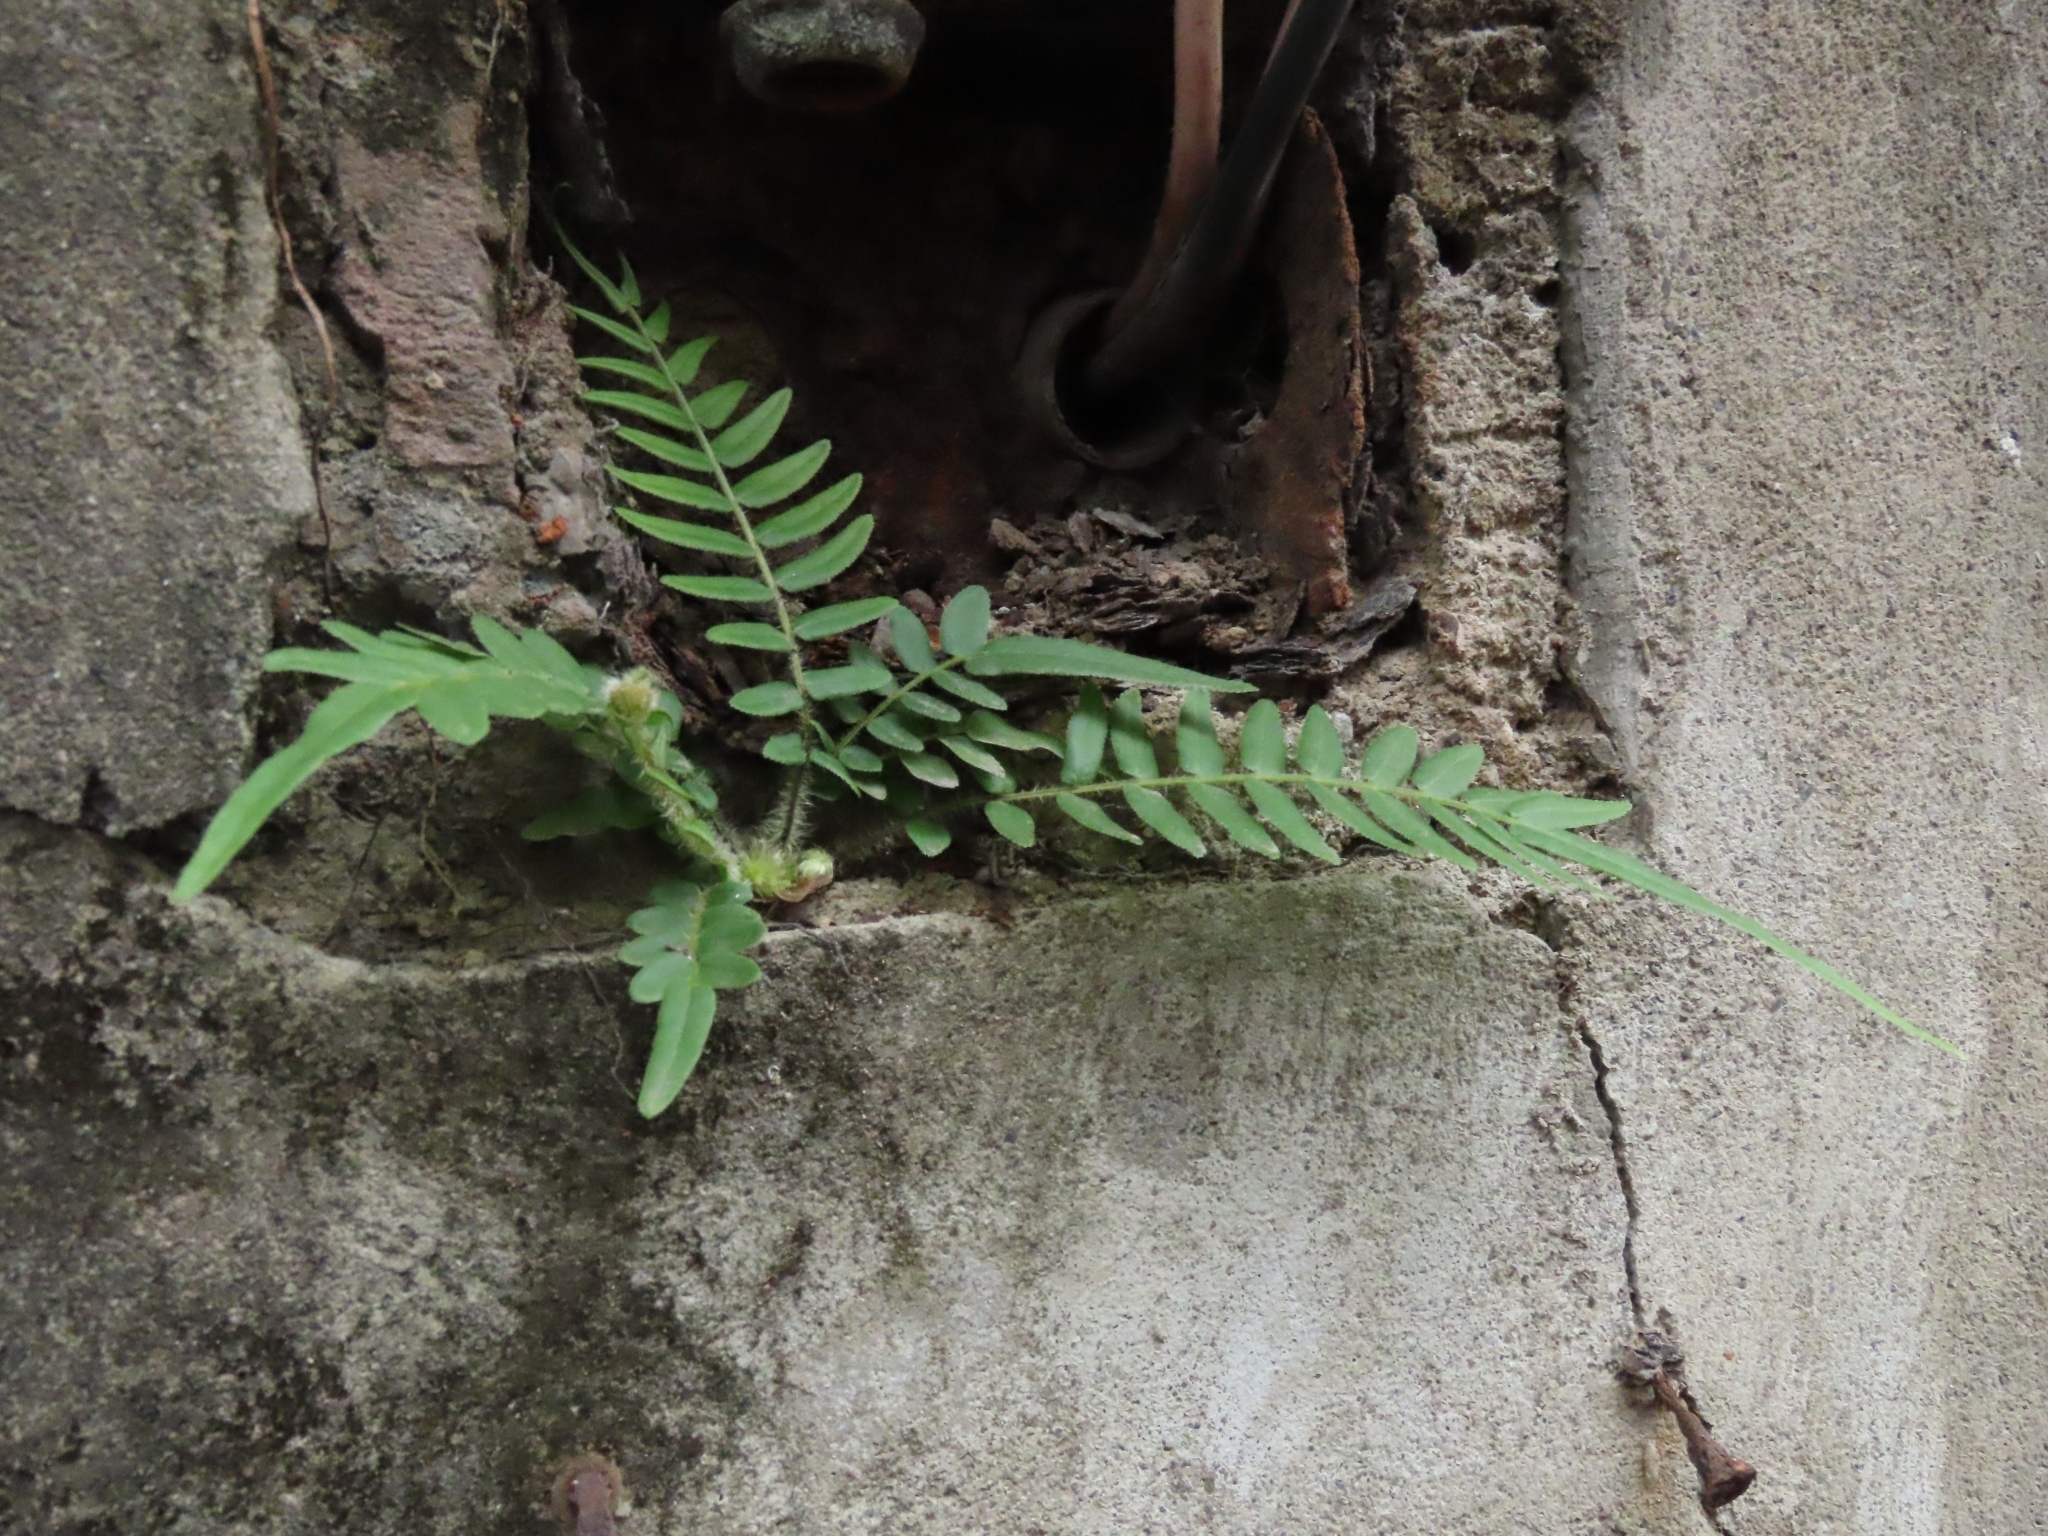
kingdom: Plantae
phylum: Tracheophyta
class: Polypodiopsida
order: Polypodiales
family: Pteridaceae
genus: Pteris
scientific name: Pteris vittata
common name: Ladder brake
